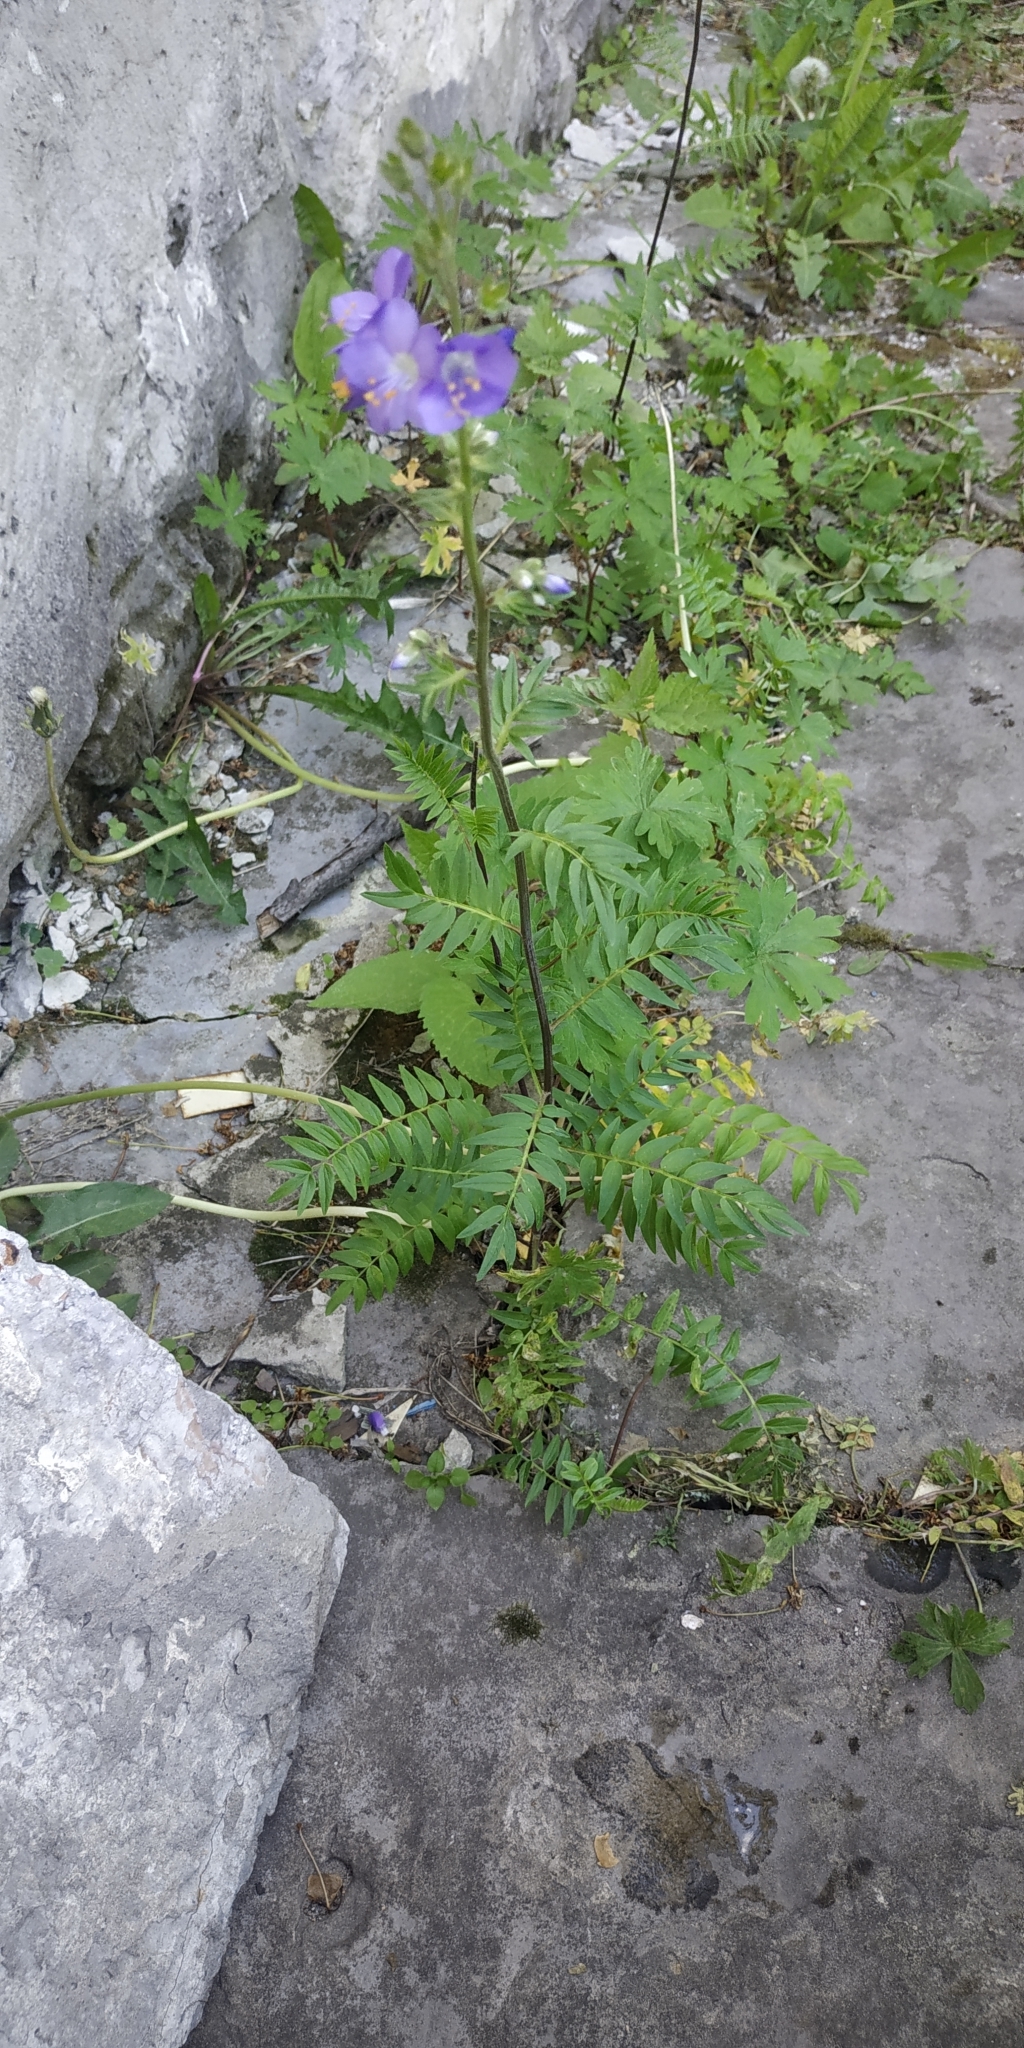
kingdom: Plantae
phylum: Tracheophyta
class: Magnoliopsida
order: Ericales
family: Polemoniaceae
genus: Polemonium
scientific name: Polemonium caeruleum
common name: Jacob's-ladder
